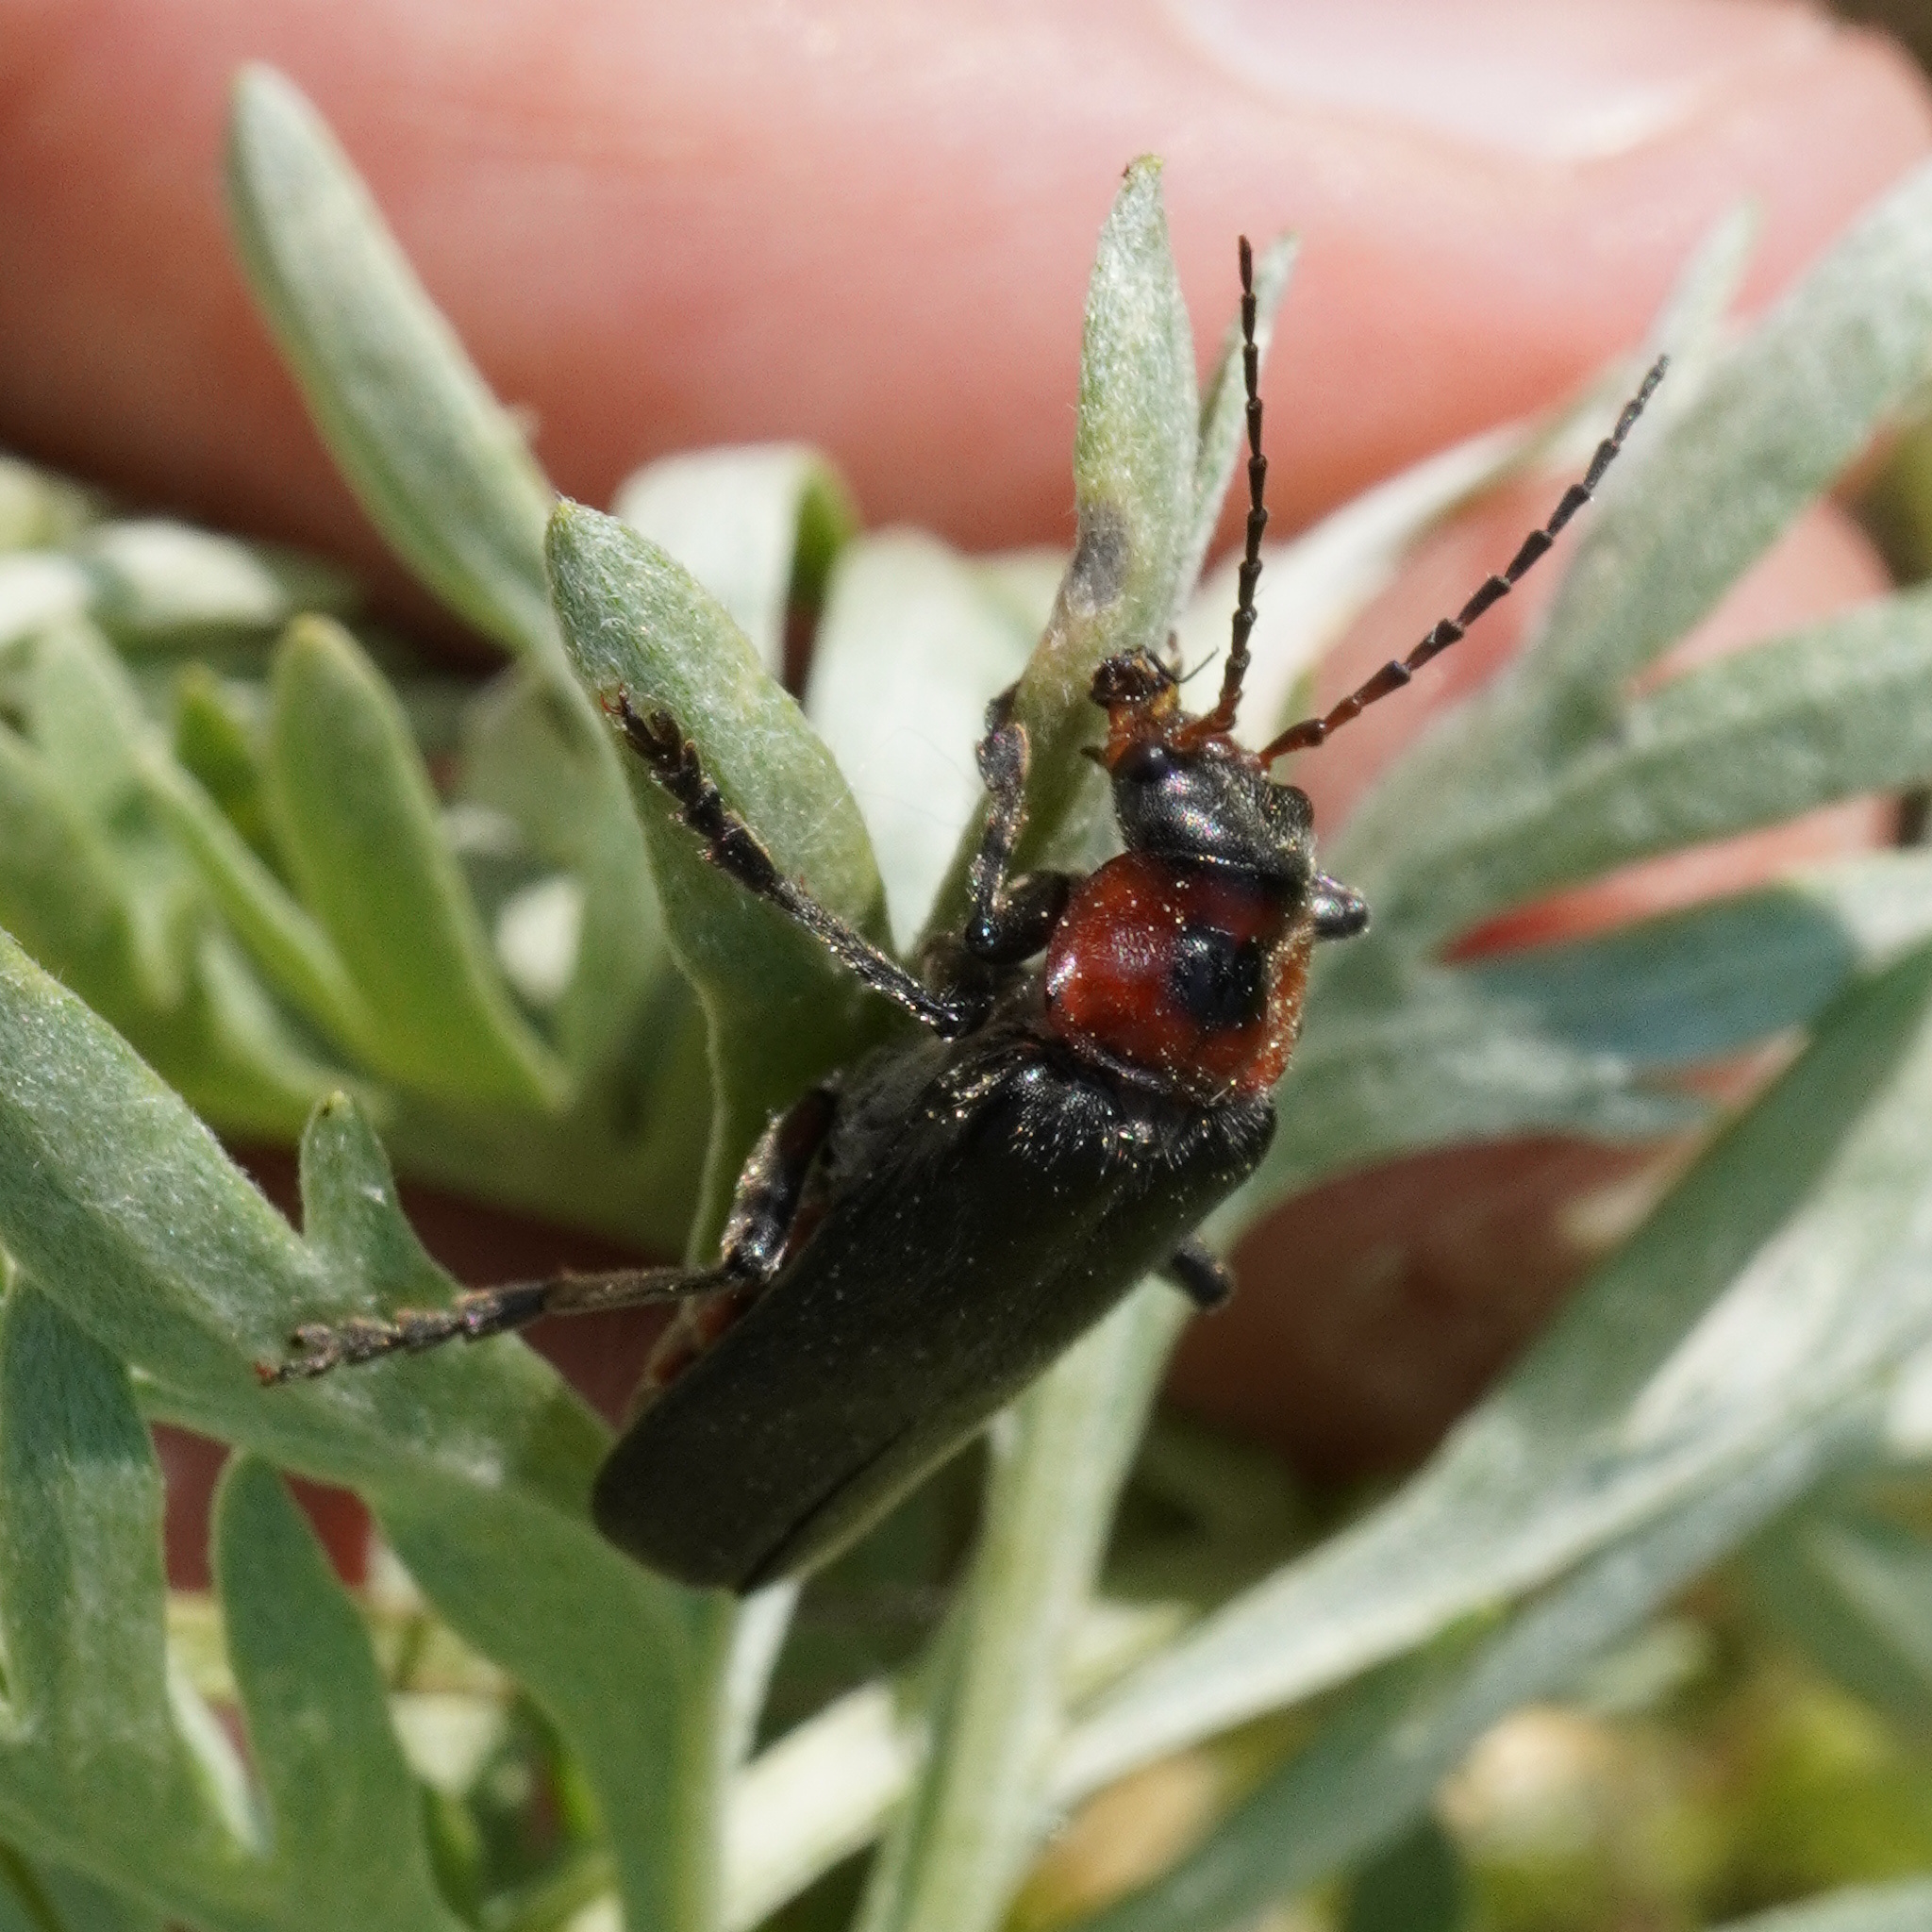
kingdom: Animalia
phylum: Arthropoda
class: Insecta
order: Coleoptera
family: Cantharidae
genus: Cantharis
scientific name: Cantharis rustica
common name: Soldier beetle
